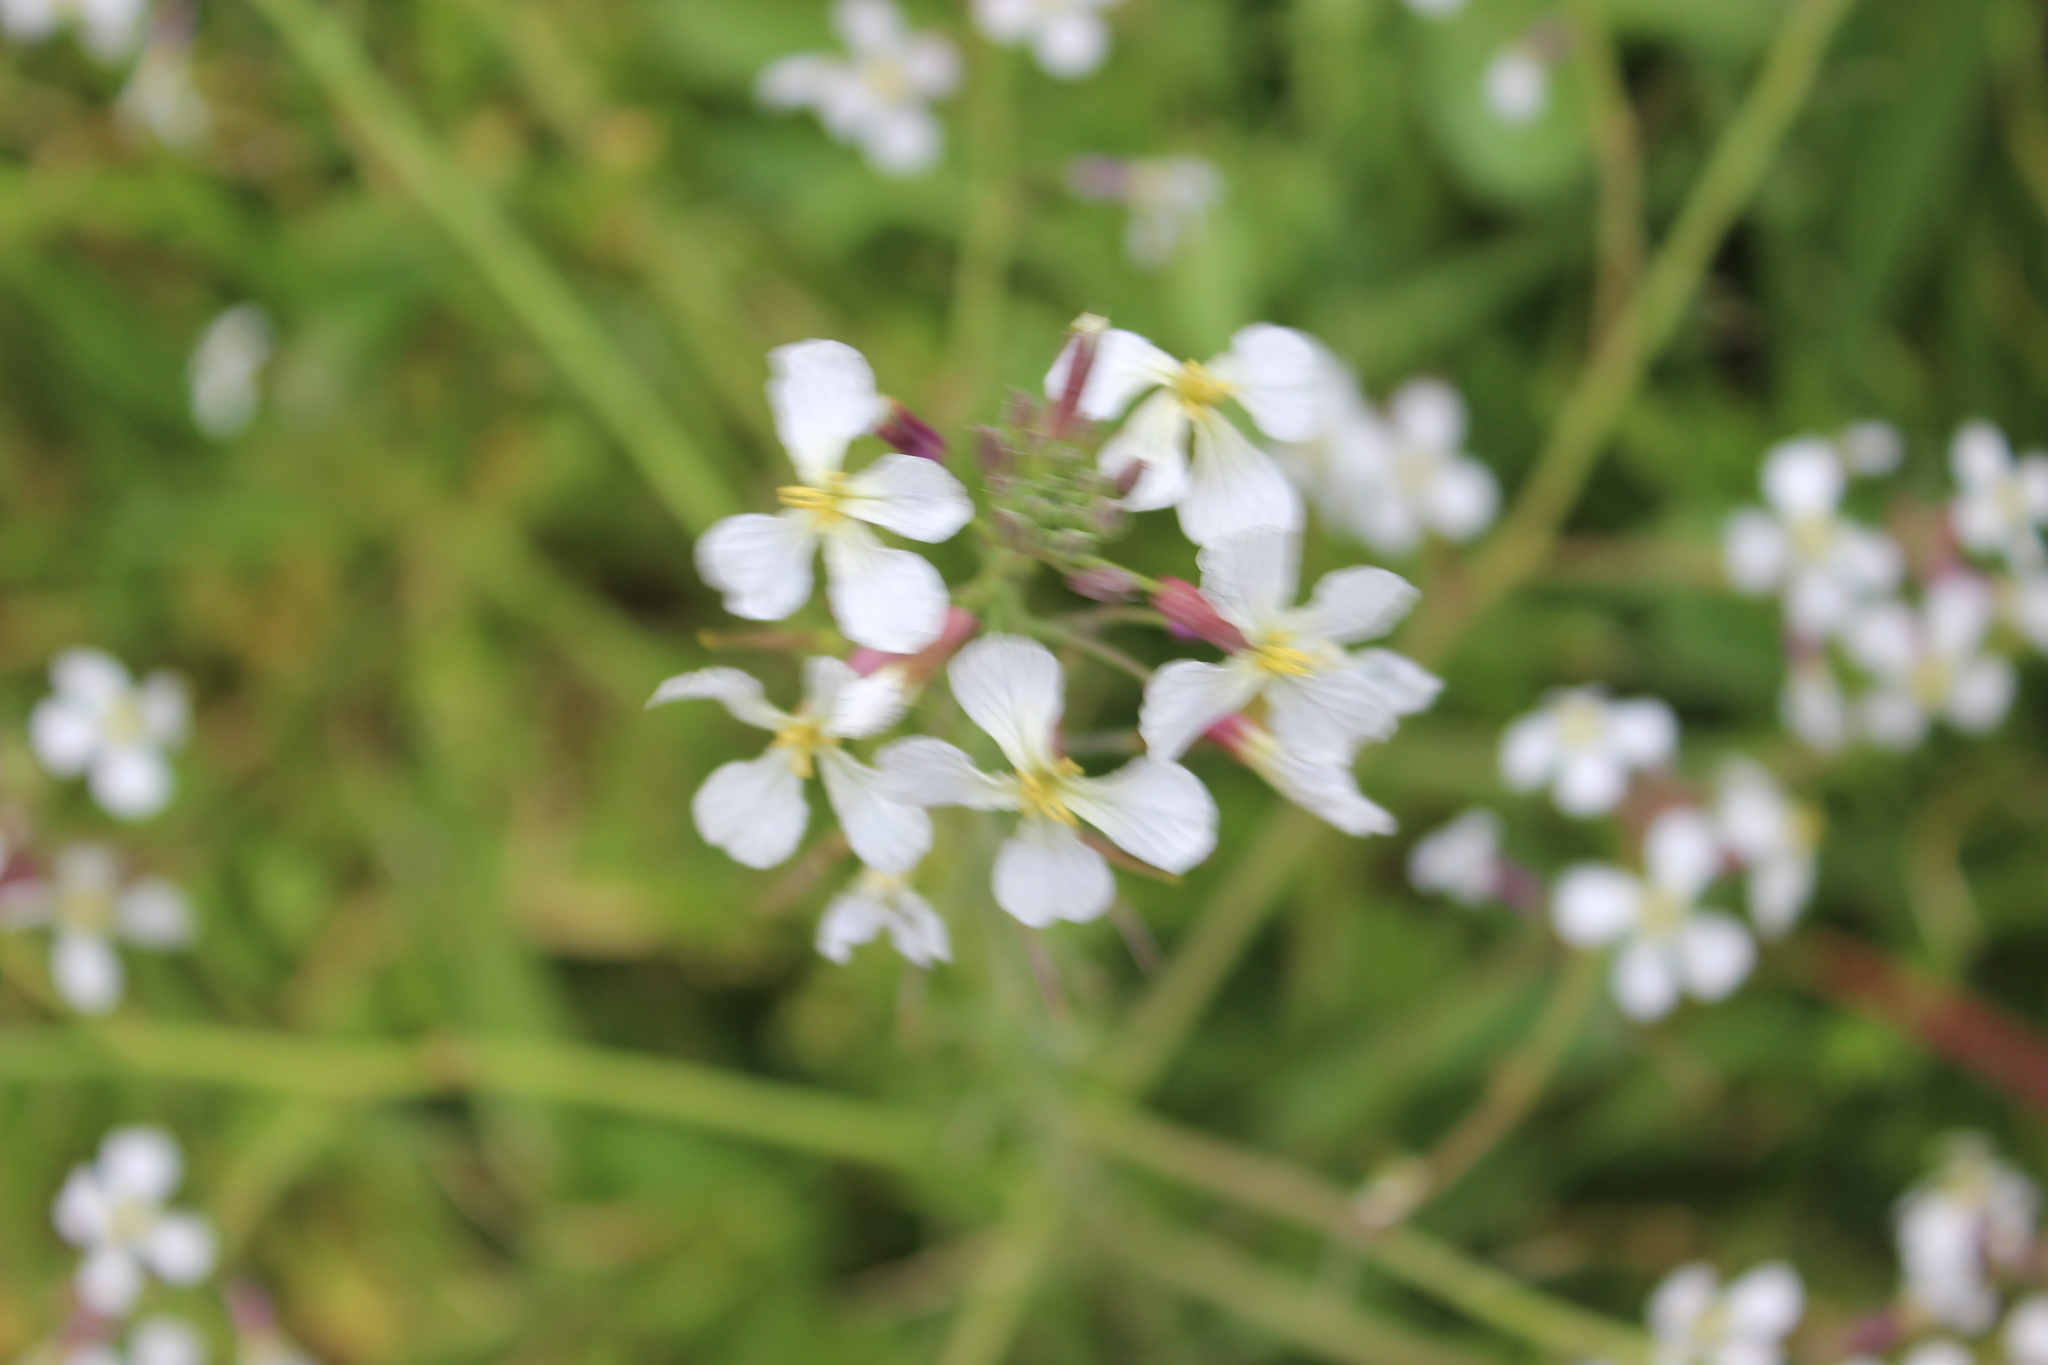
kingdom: Plantae
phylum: Tracheophyta
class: Magnoliopsida
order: Brassicales
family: Brassicaceae
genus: Raphanus
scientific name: Raphanus raphanistrum
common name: Wild radish
